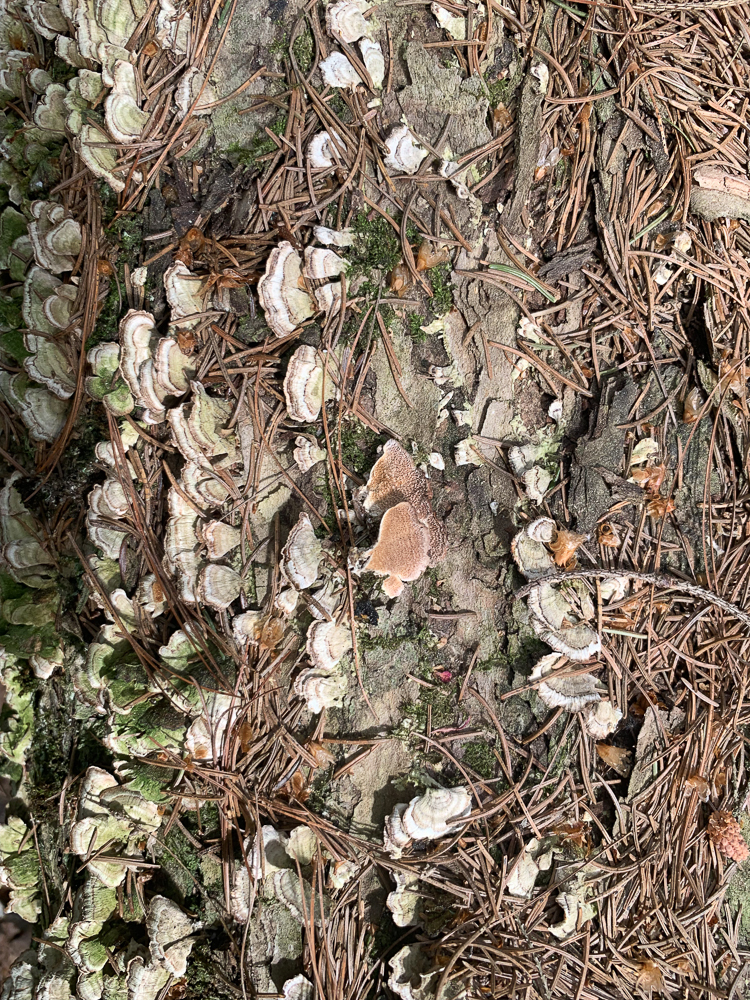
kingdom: Fungi
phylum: Basidiomycota
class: Agaricomycetes
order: Hymenochaetales
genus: Trichaptum
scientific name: Trichaptum biforme
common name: Violet-toothed polypore
